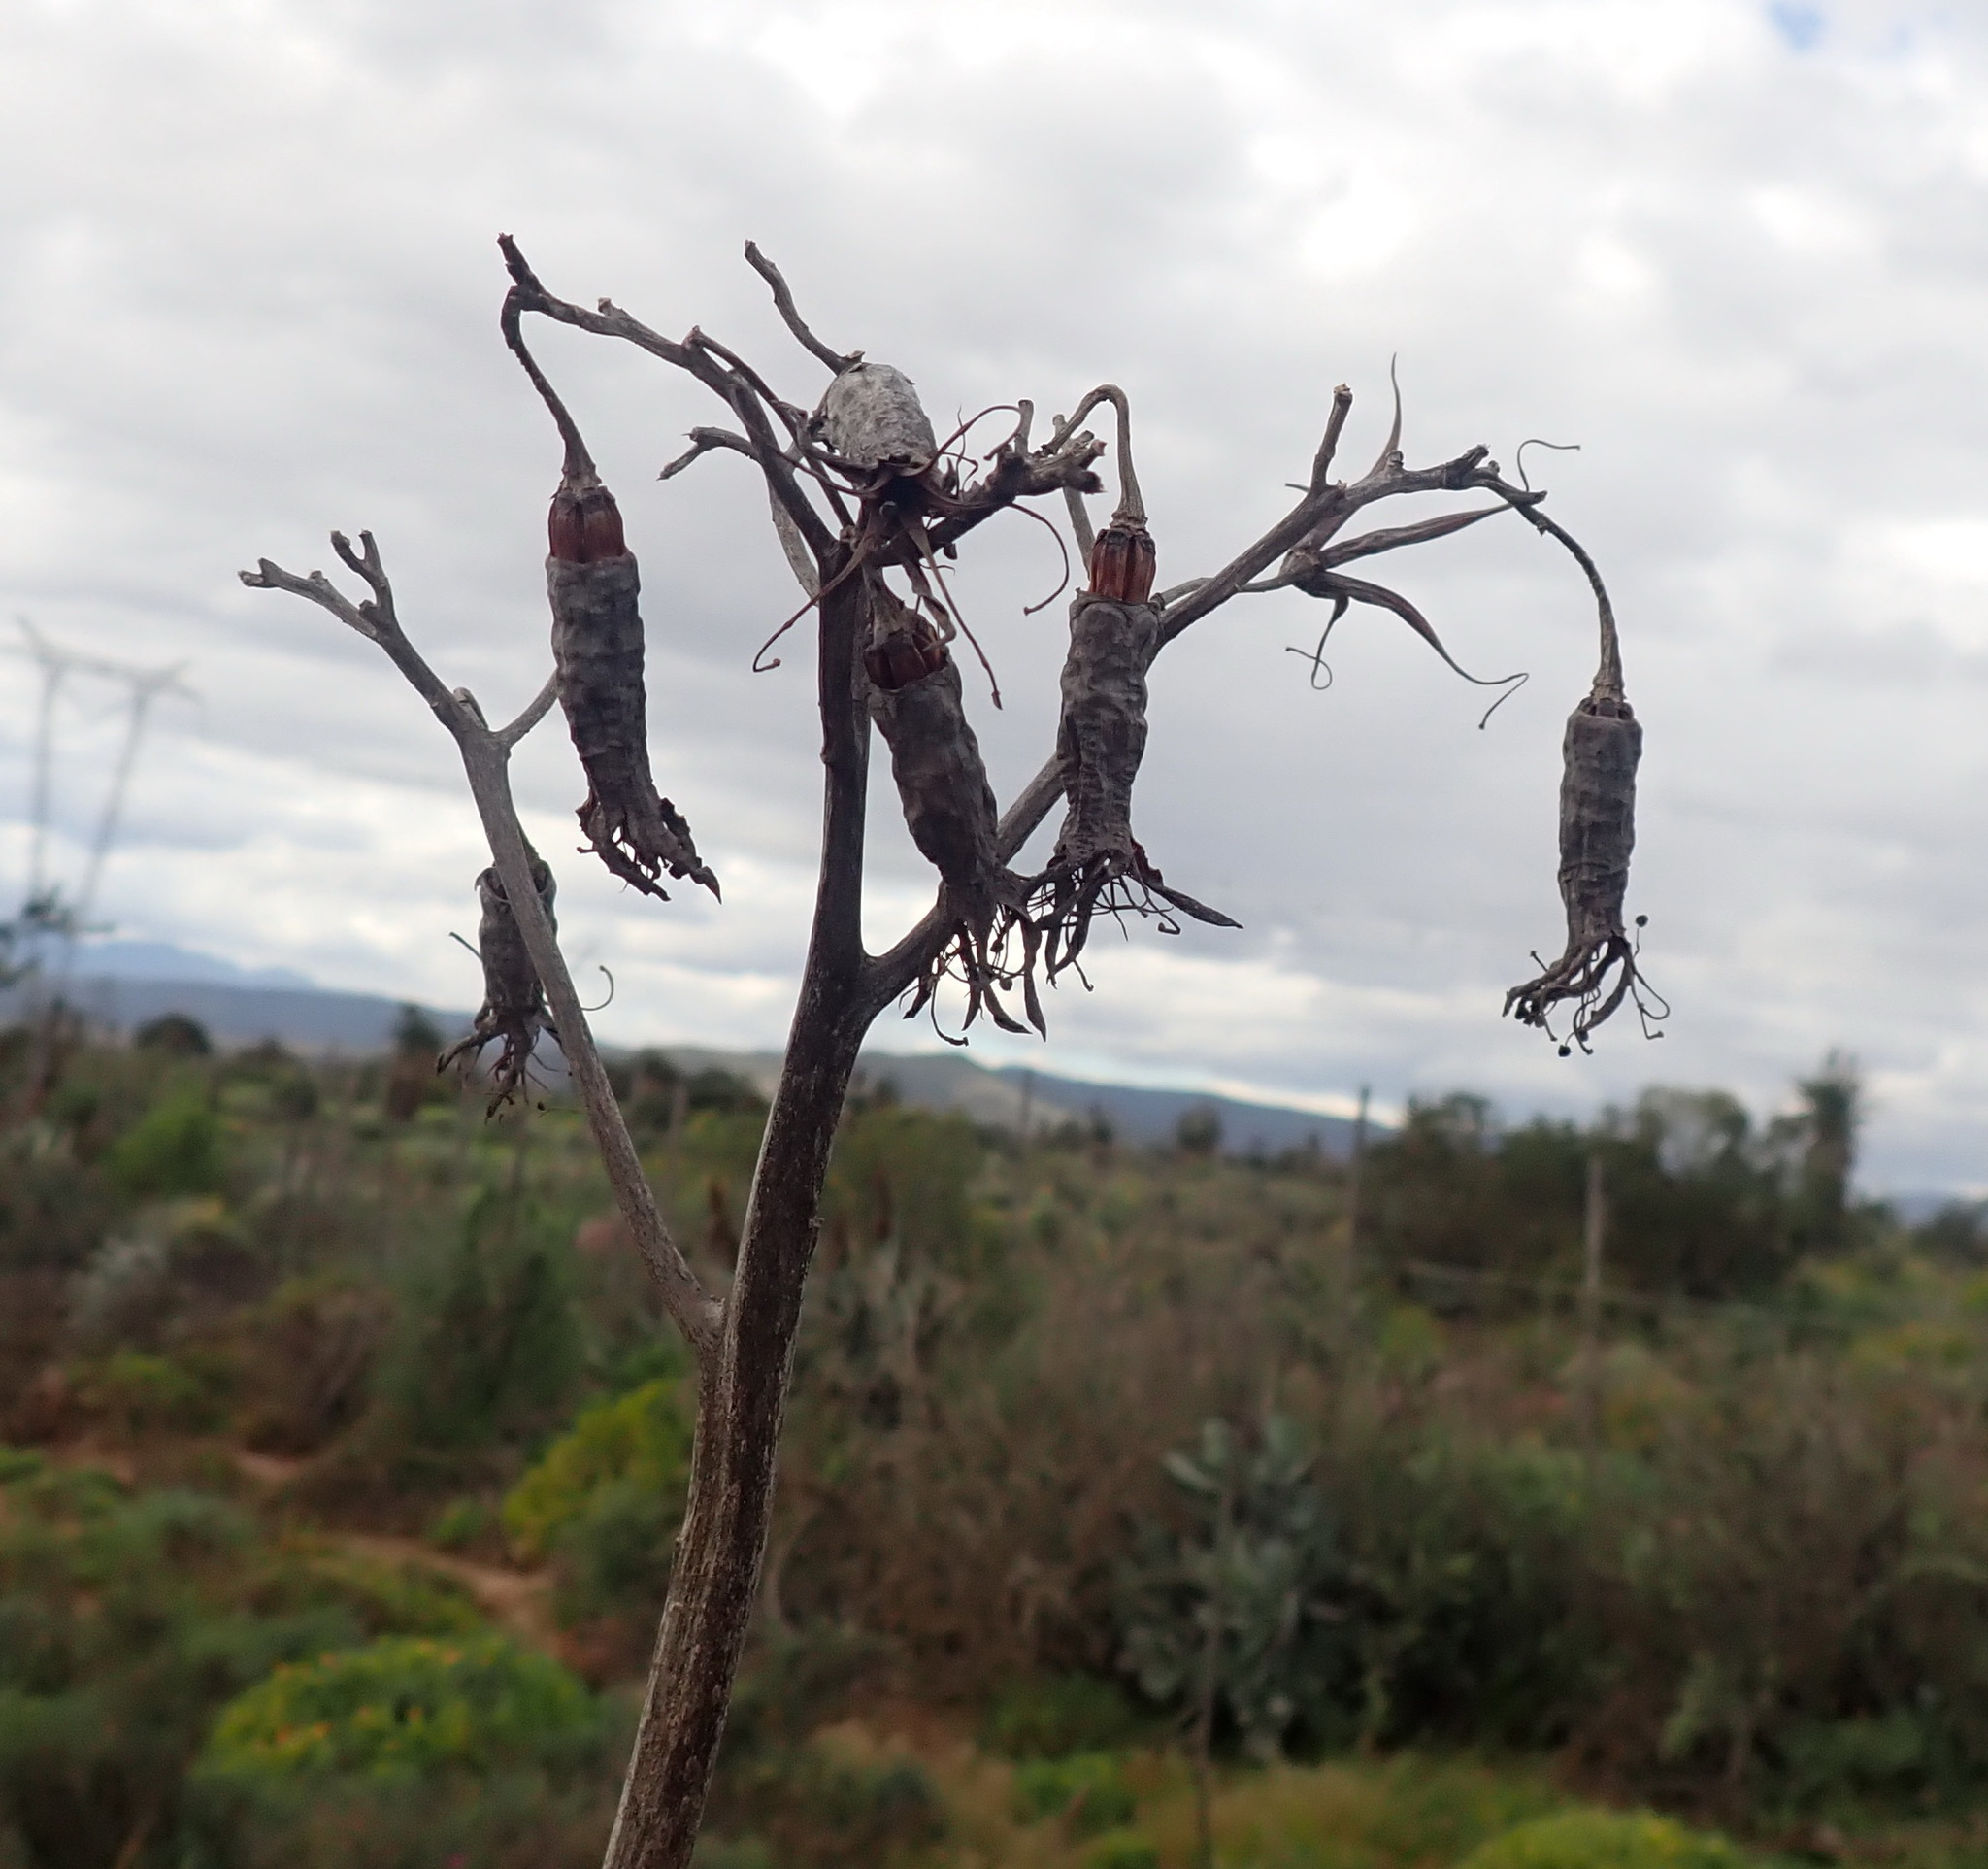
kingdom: Plantae
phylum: Tracheophyta
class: Magnoliopsida
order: Saxifragales
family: Crassulaceae
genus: Cotyledon
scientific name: Cotyledon orbiculata
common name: Pig's ear
